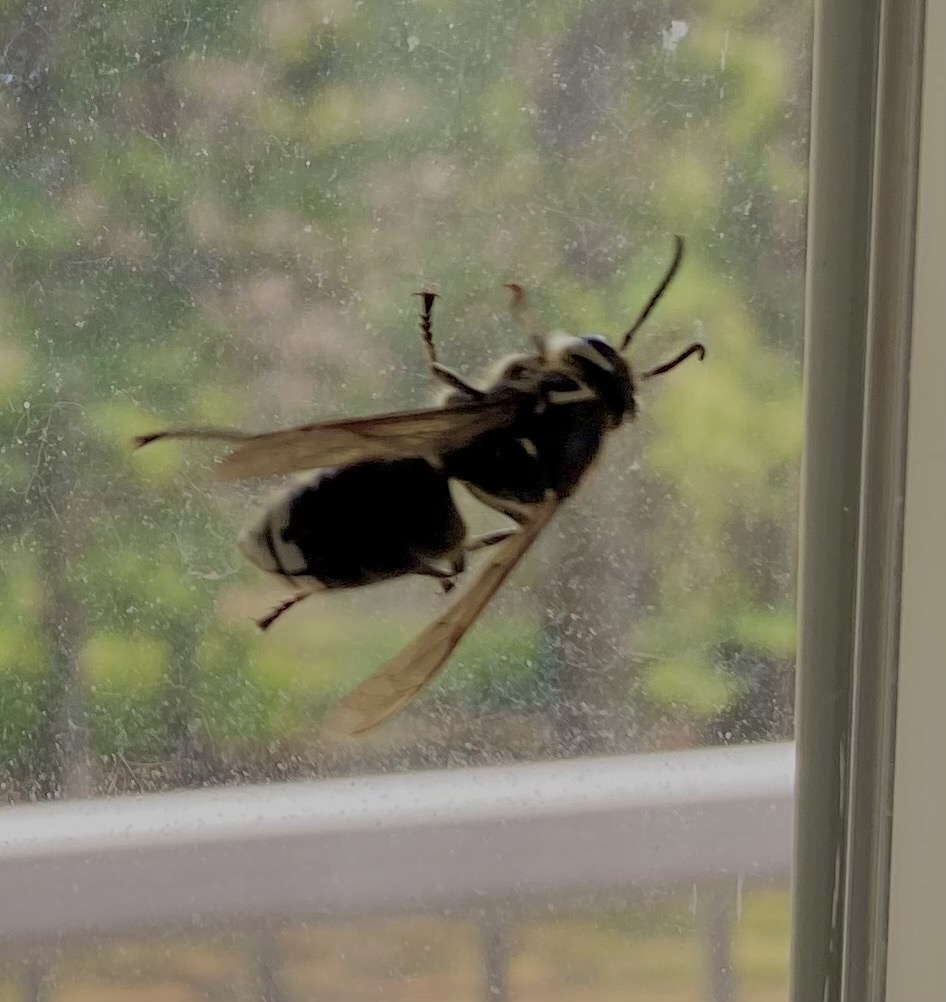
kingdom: Animalia
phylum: Arthropoda
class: Insecta
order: Hymenoptera
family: Vespidae
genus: Dolichovespula
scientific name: Dolichovespula maculata
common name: Bald-faced hornet
